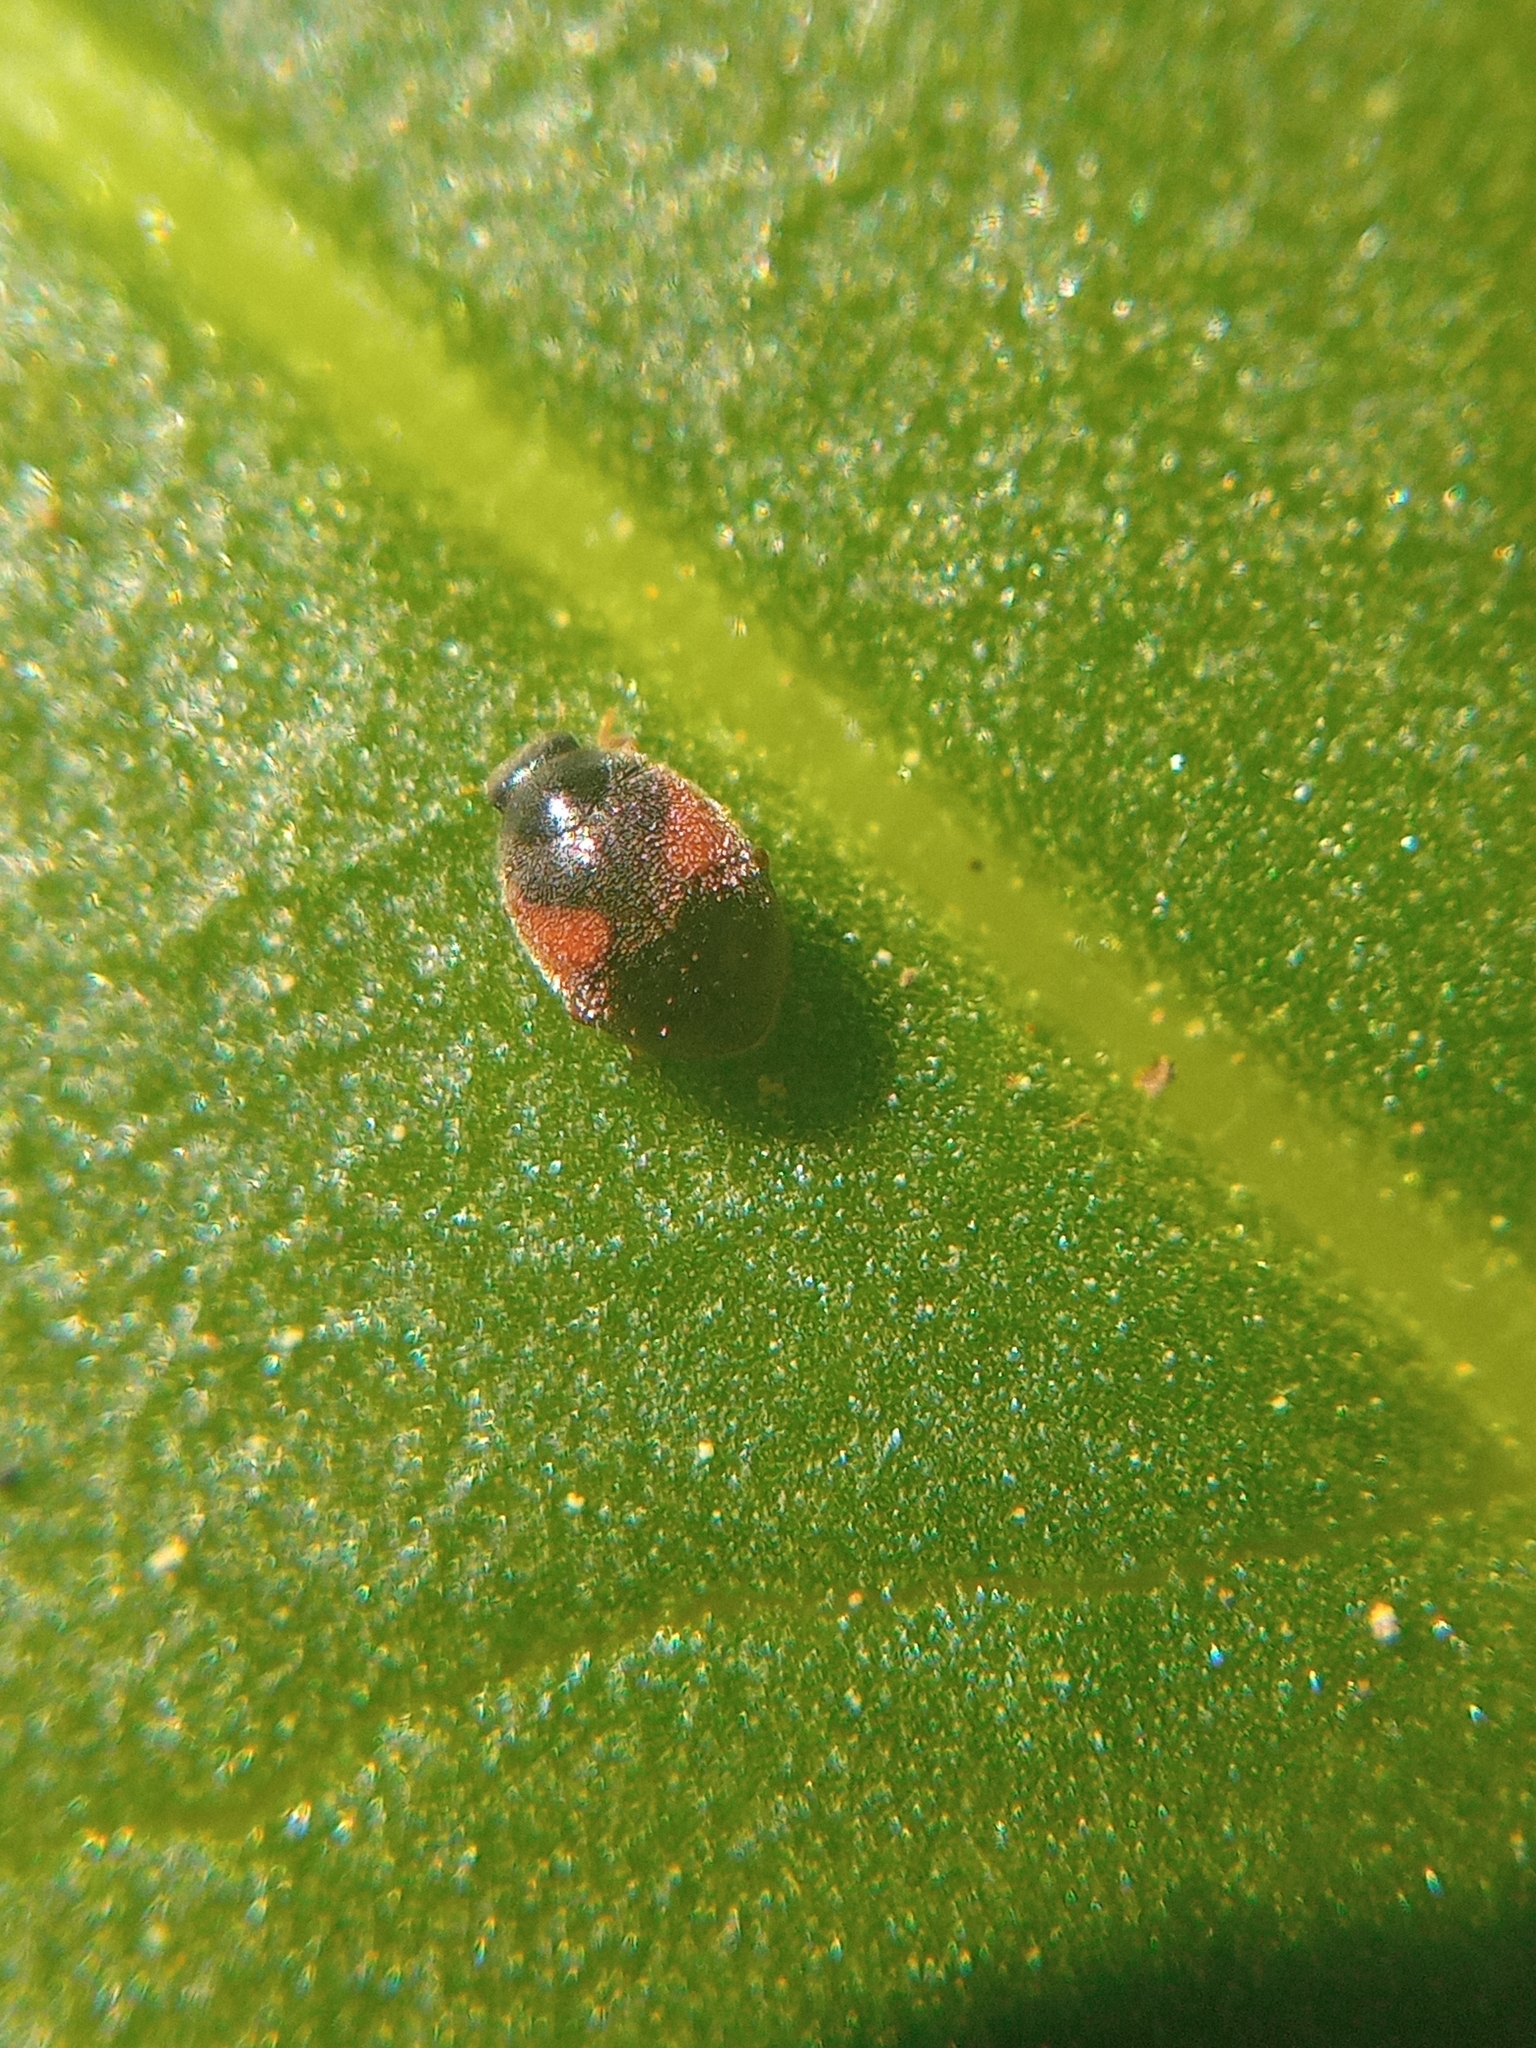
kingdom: Animalia
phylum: Arthropoda
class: Insecta
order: Coleoptera
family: Coccinellidae
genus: Scymnus
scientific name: Scymnus interruptus
